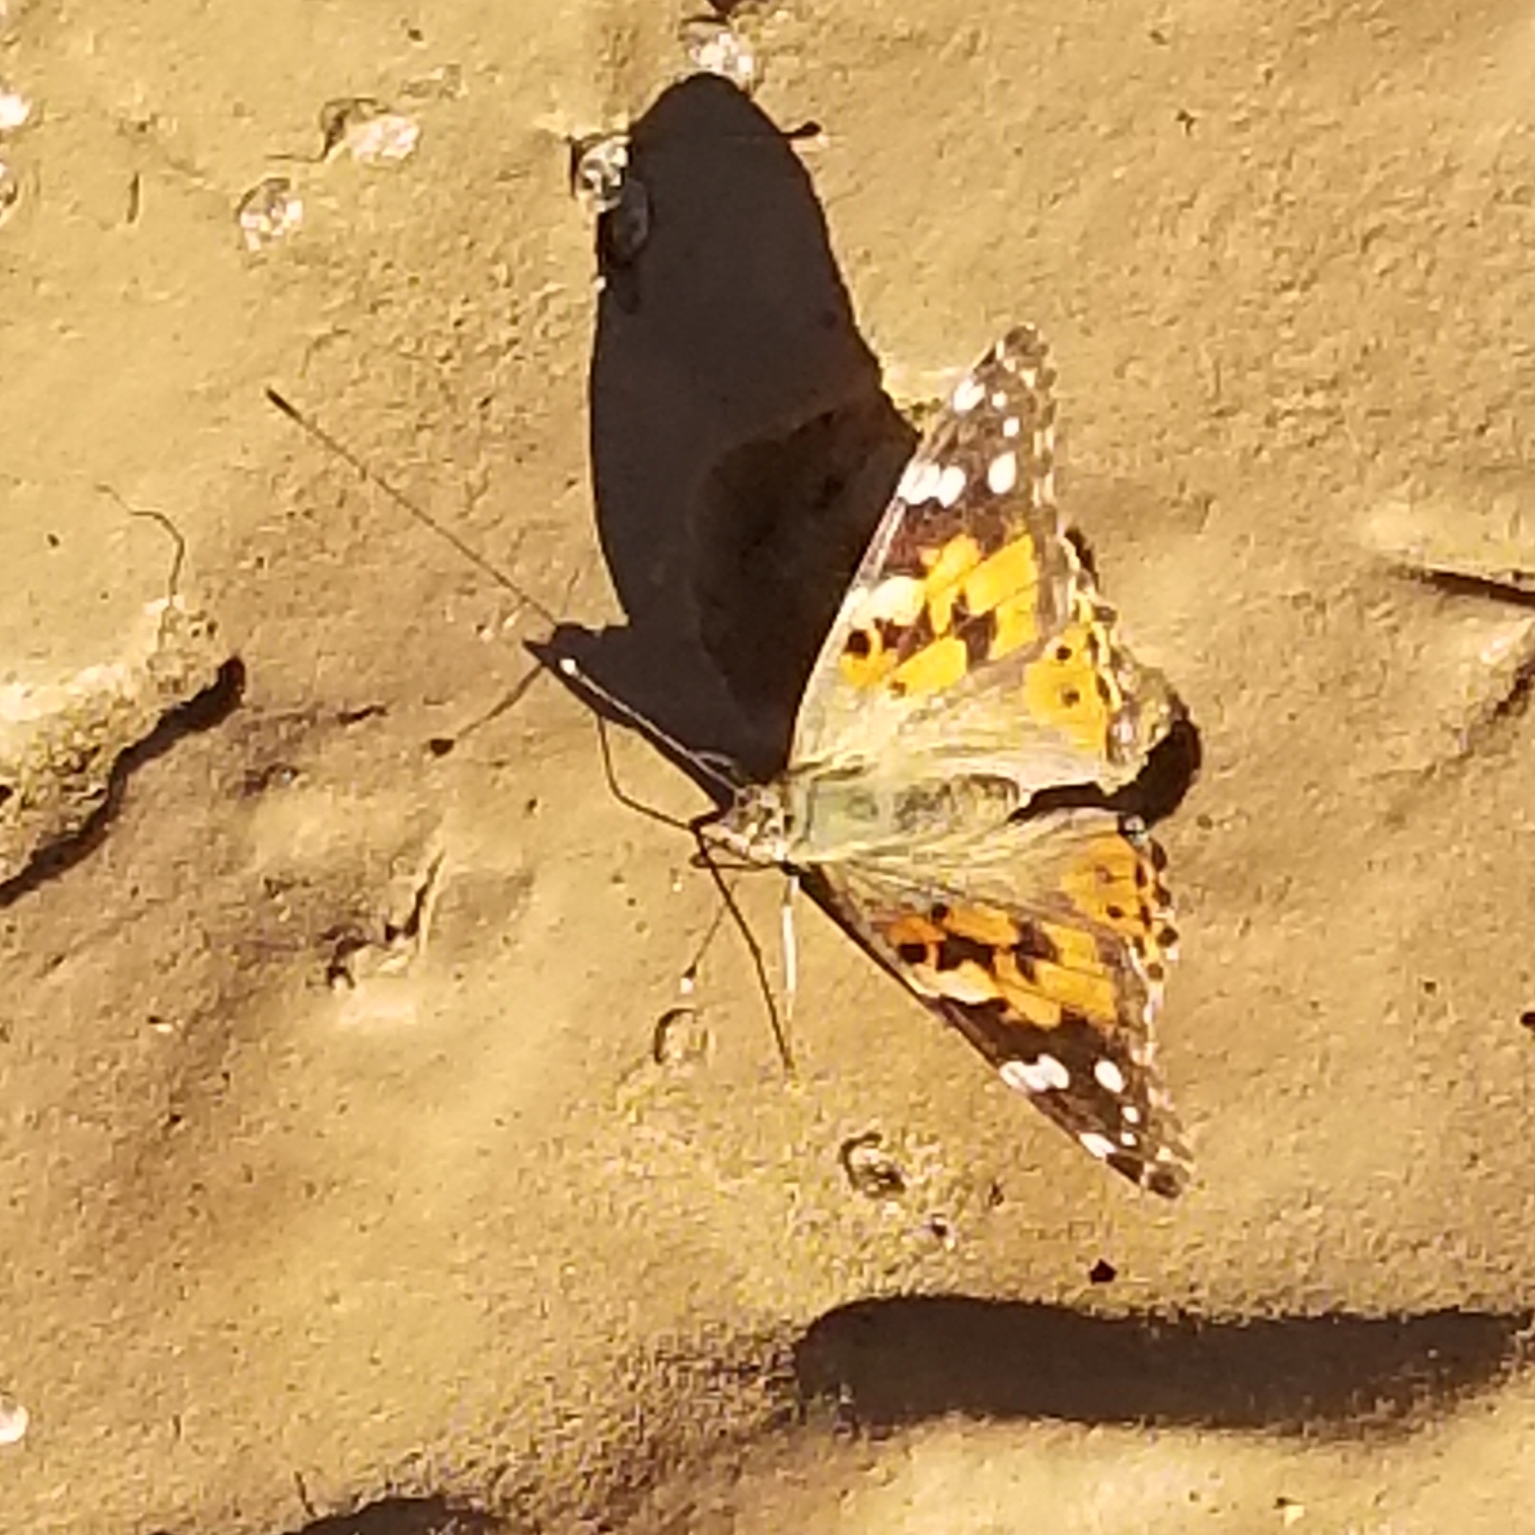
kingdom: Animalia
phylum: Arthropoda
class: Insecta
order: Lepidoptera
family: Nymphalidae
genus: Vanessa
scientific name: Vanessa cardui
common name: Painted lady
